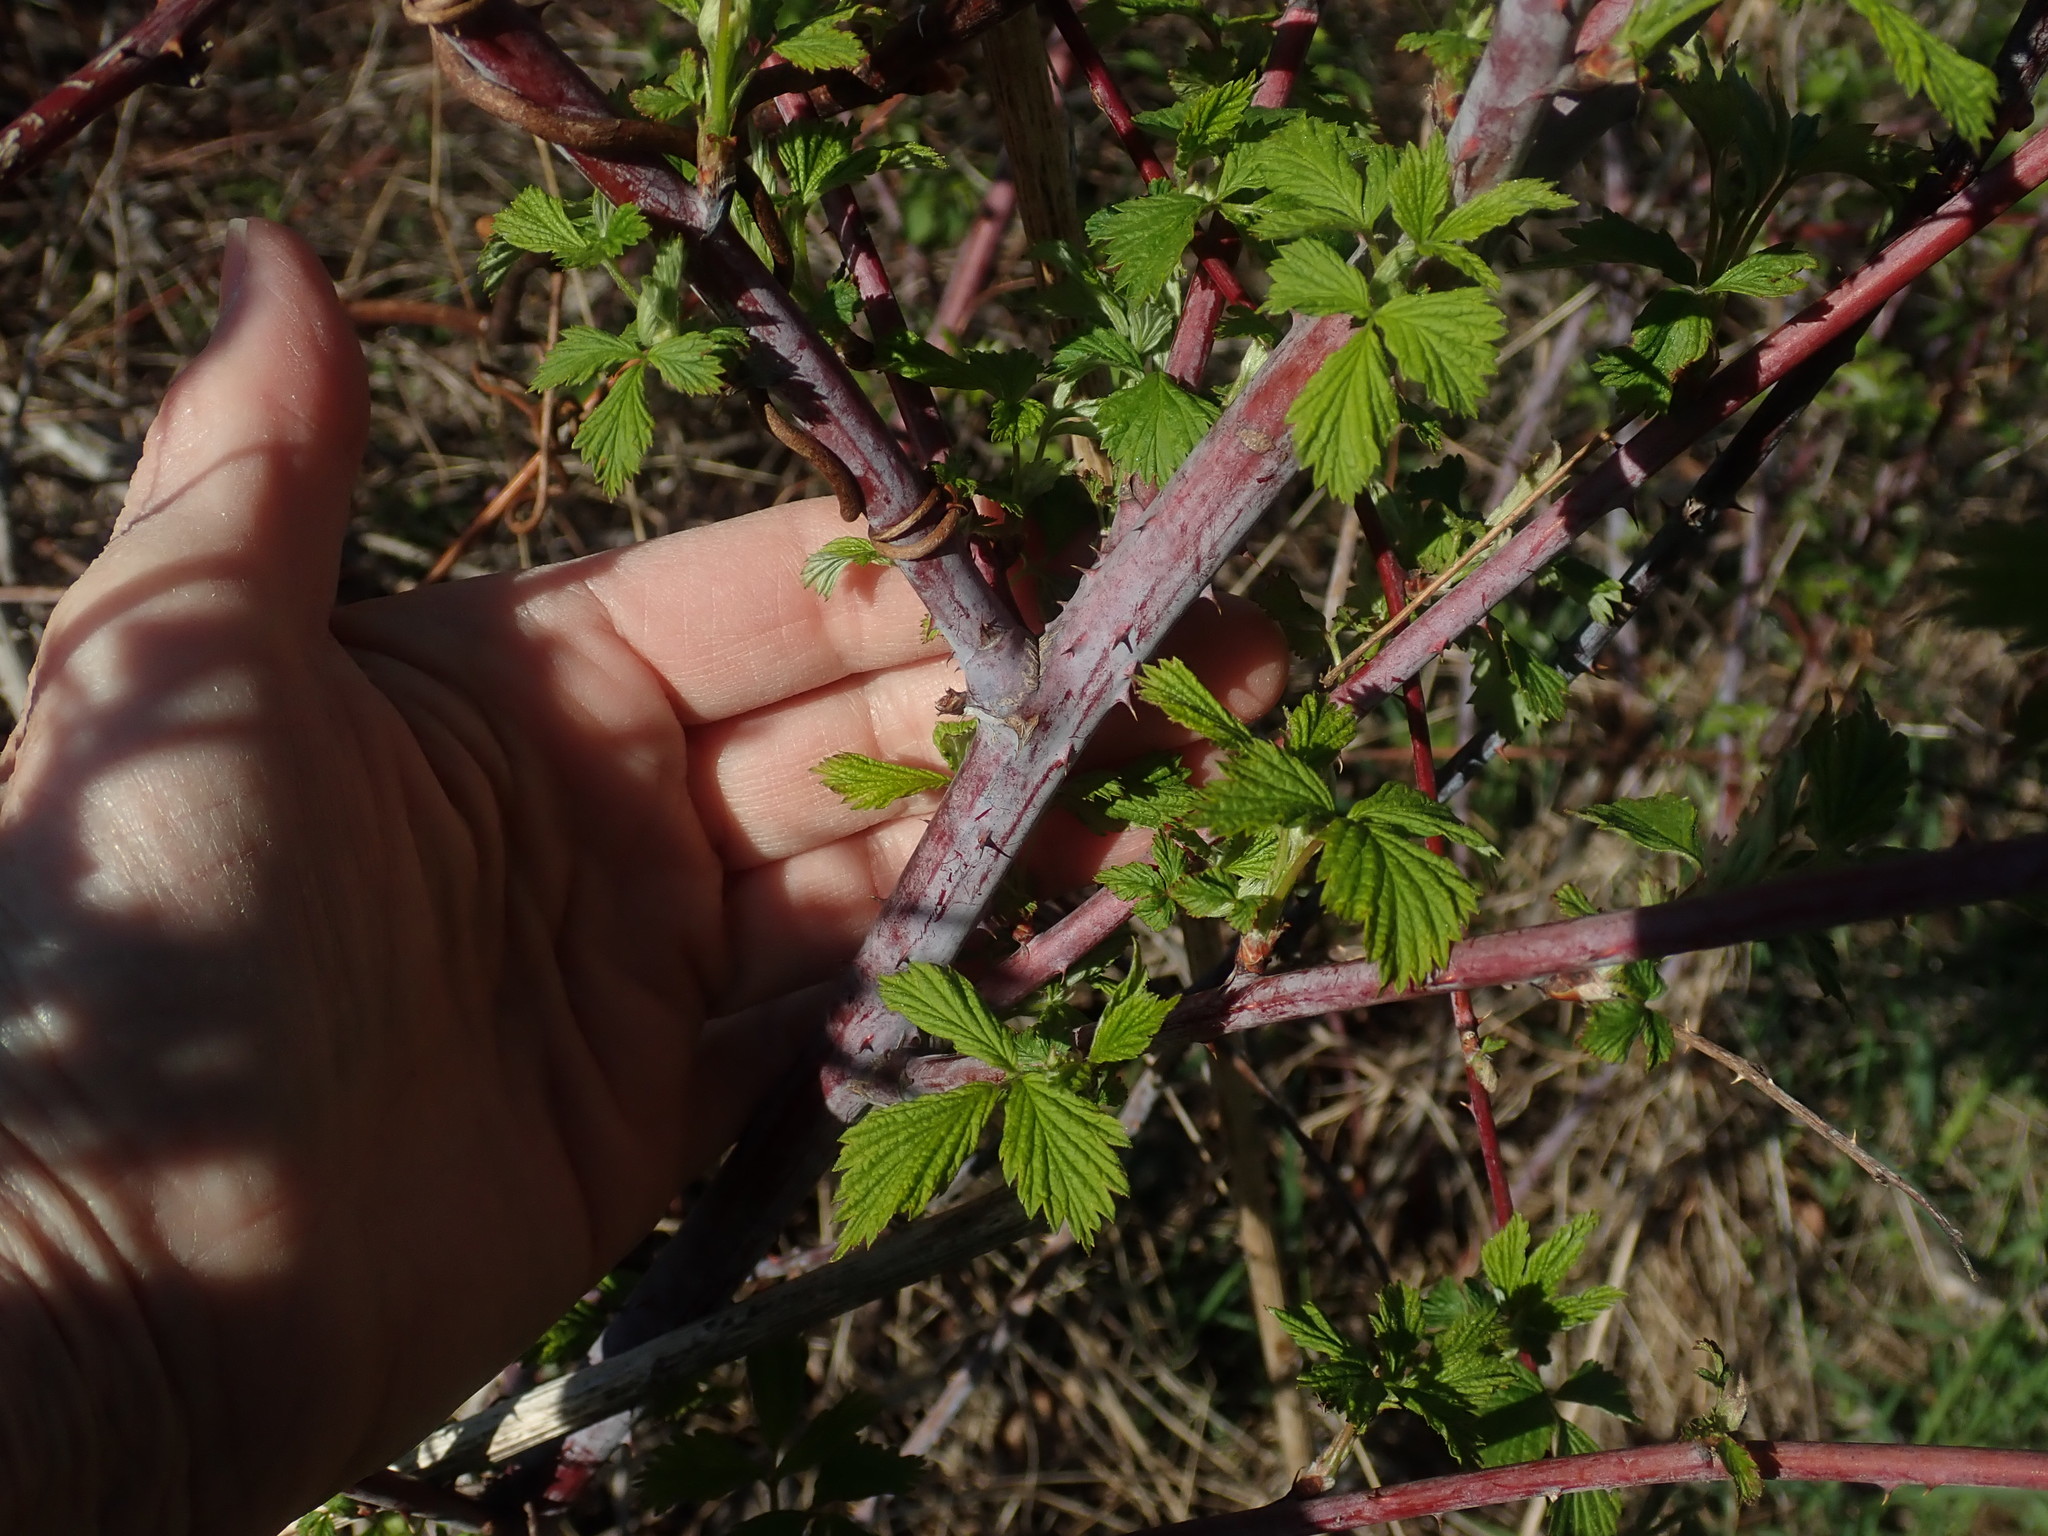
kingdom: Plantae
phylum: Tracheophyta
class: Magnoliopsida
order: Rosales
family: Rosaceae
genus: Rubus
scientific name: Rubus occidentalis
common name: Black raspberry
